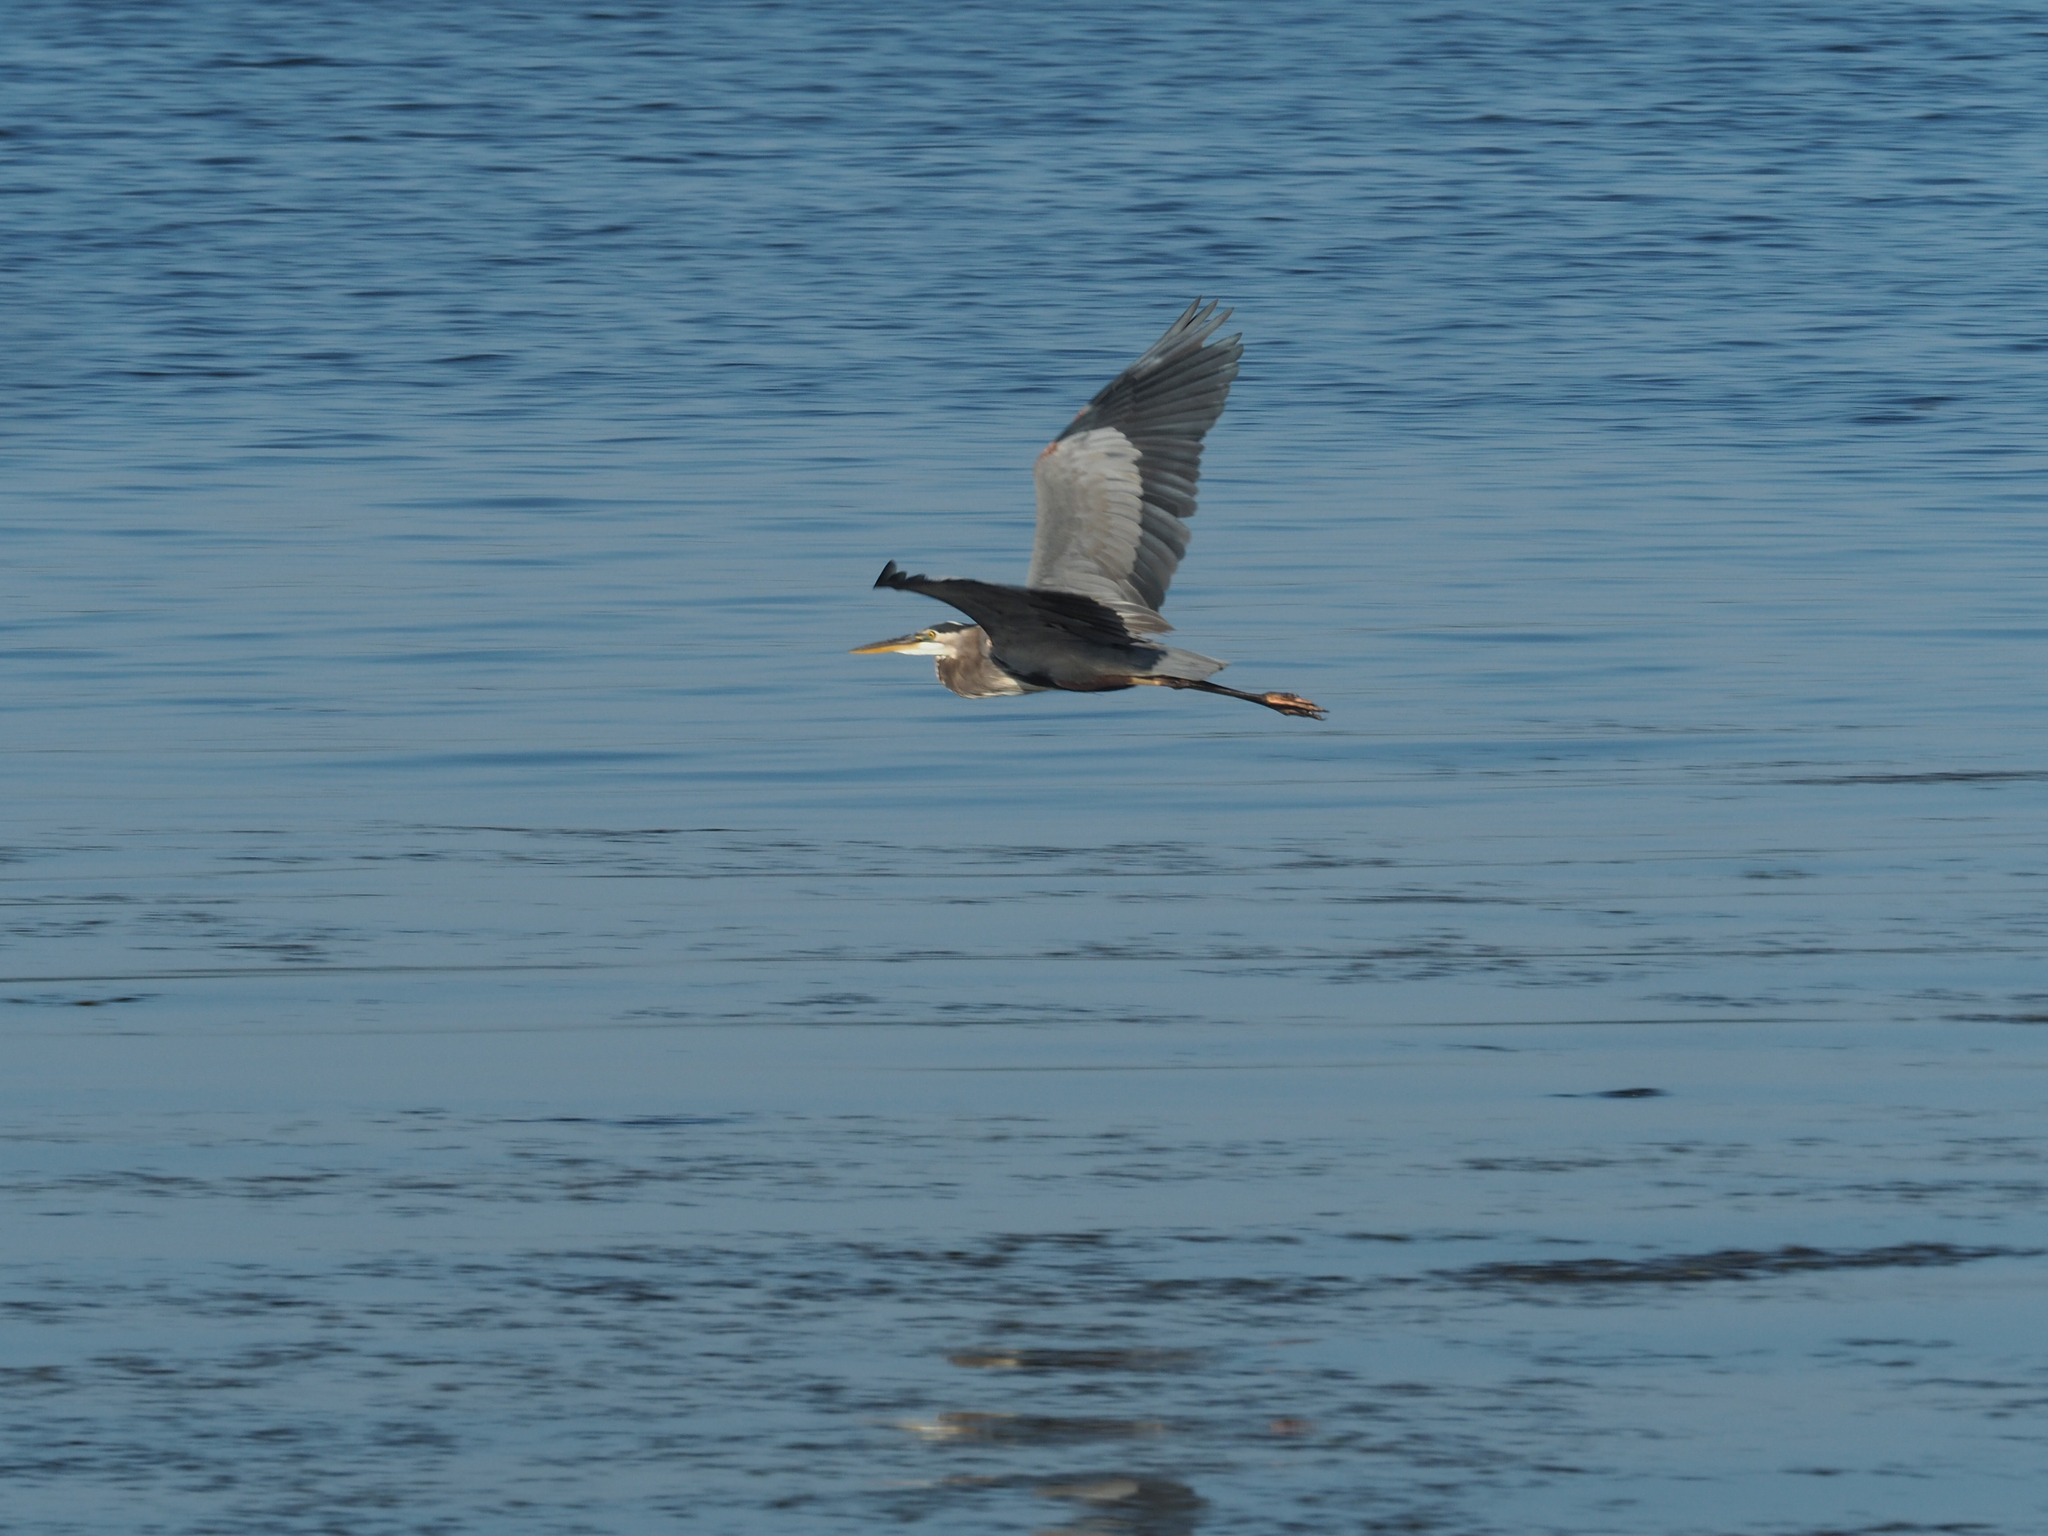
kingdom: Animalia
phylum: Chordata
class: Aves
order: Pelecaniformes
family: Ardeidae
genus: Ardea
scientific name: Ardea herodias
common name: Great blue heron
